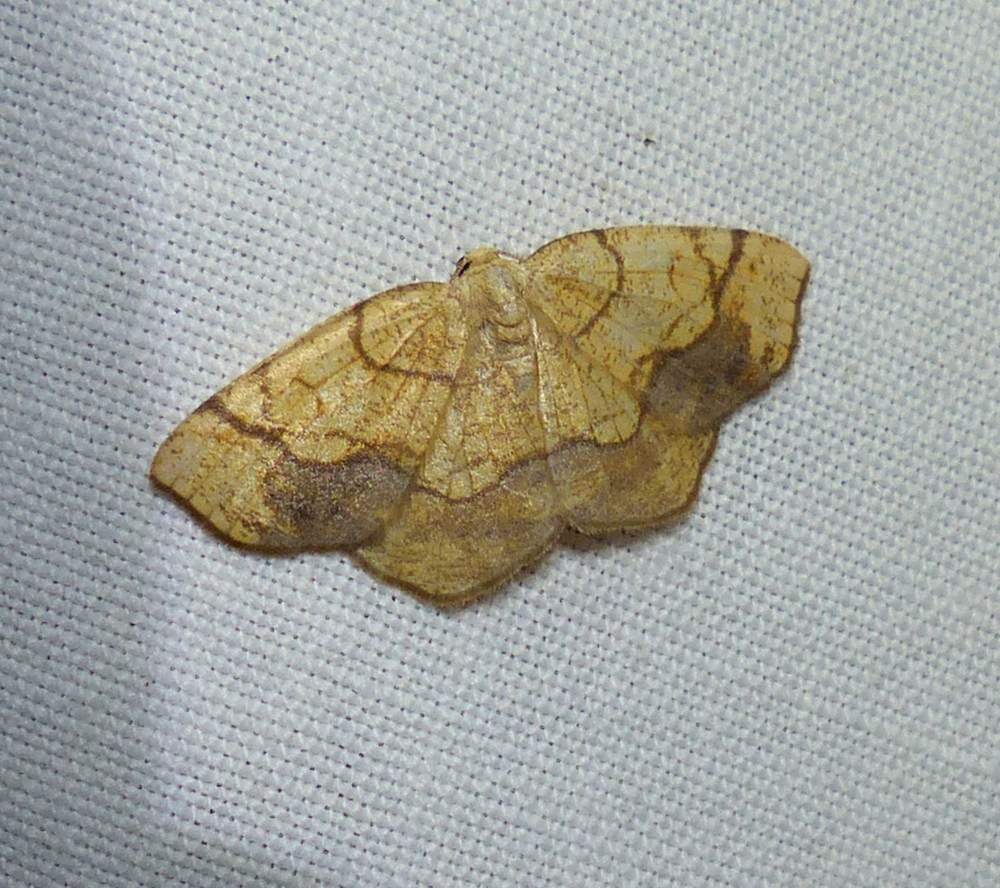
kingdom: Animalia
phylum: Arthropoda
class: Insecta
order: Lepidoptera
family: Geometridae
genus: Nematocampa
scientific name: Nematocampa resistaria
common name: Horned spanworm moth
